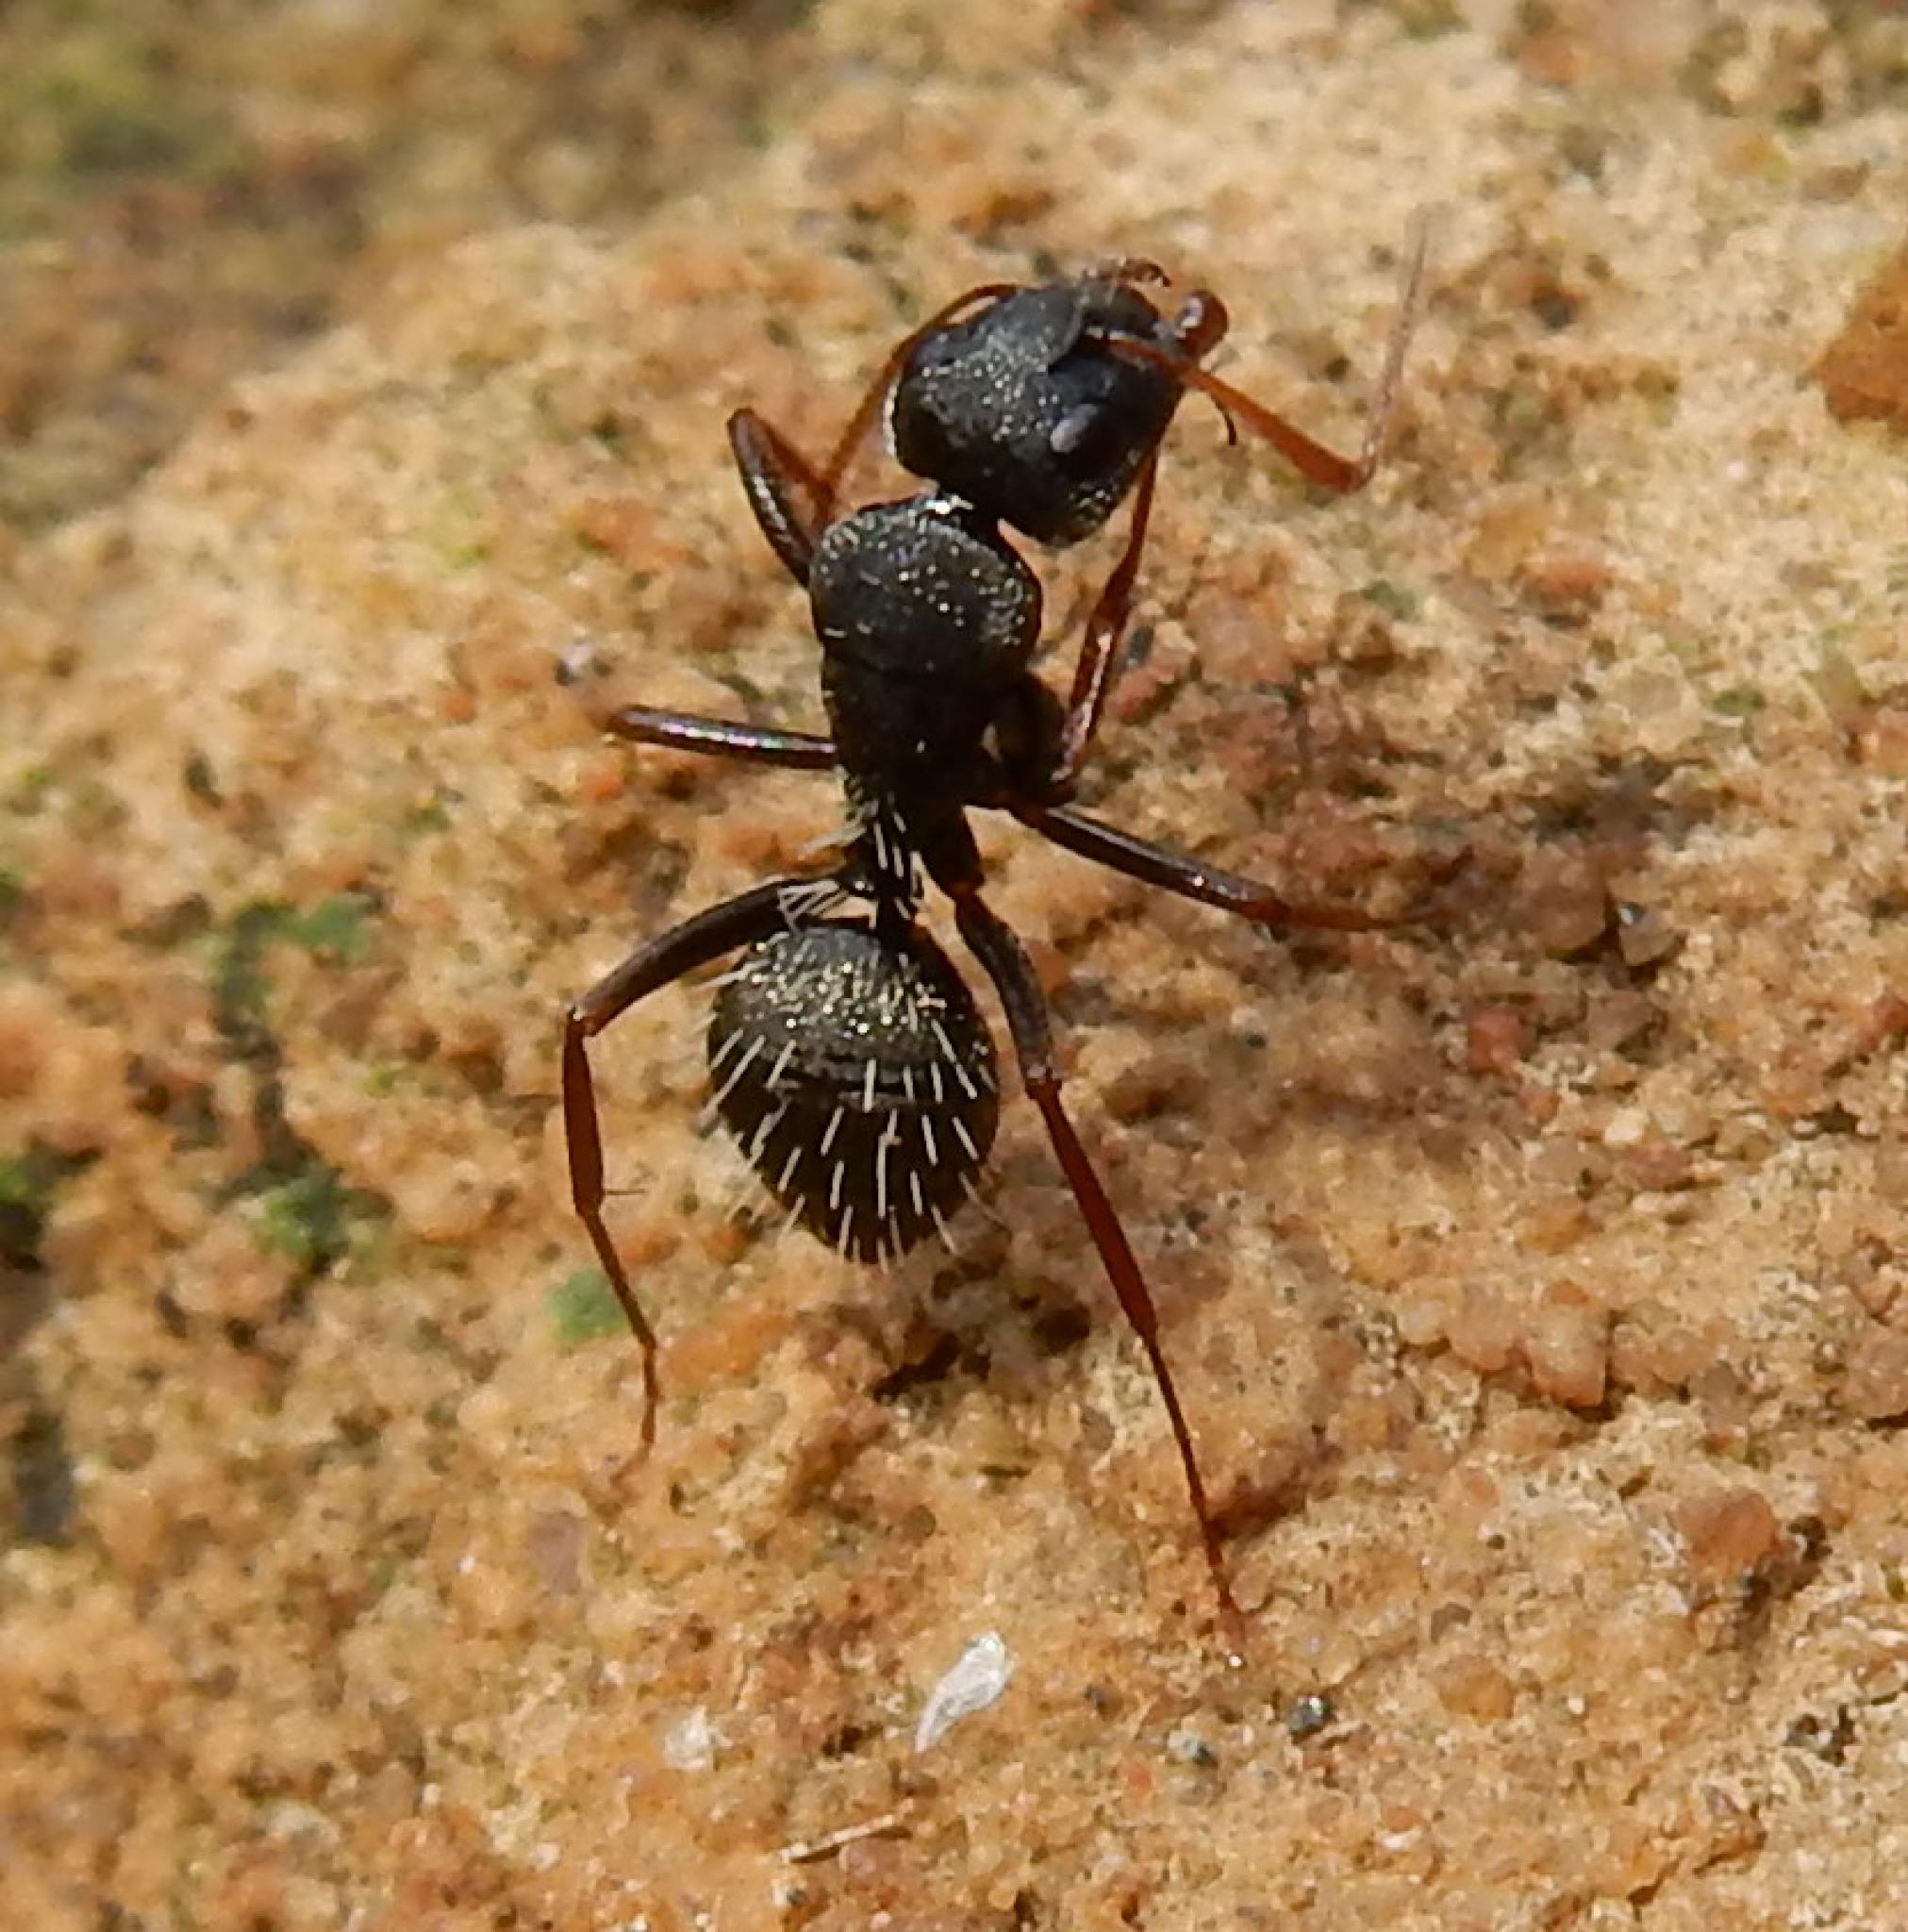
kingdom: Animalia
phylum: Arthropoda
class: Insecta
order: Hymenoptera
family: Formicidae
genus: Camponotus
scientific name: Camponotus auropubens
